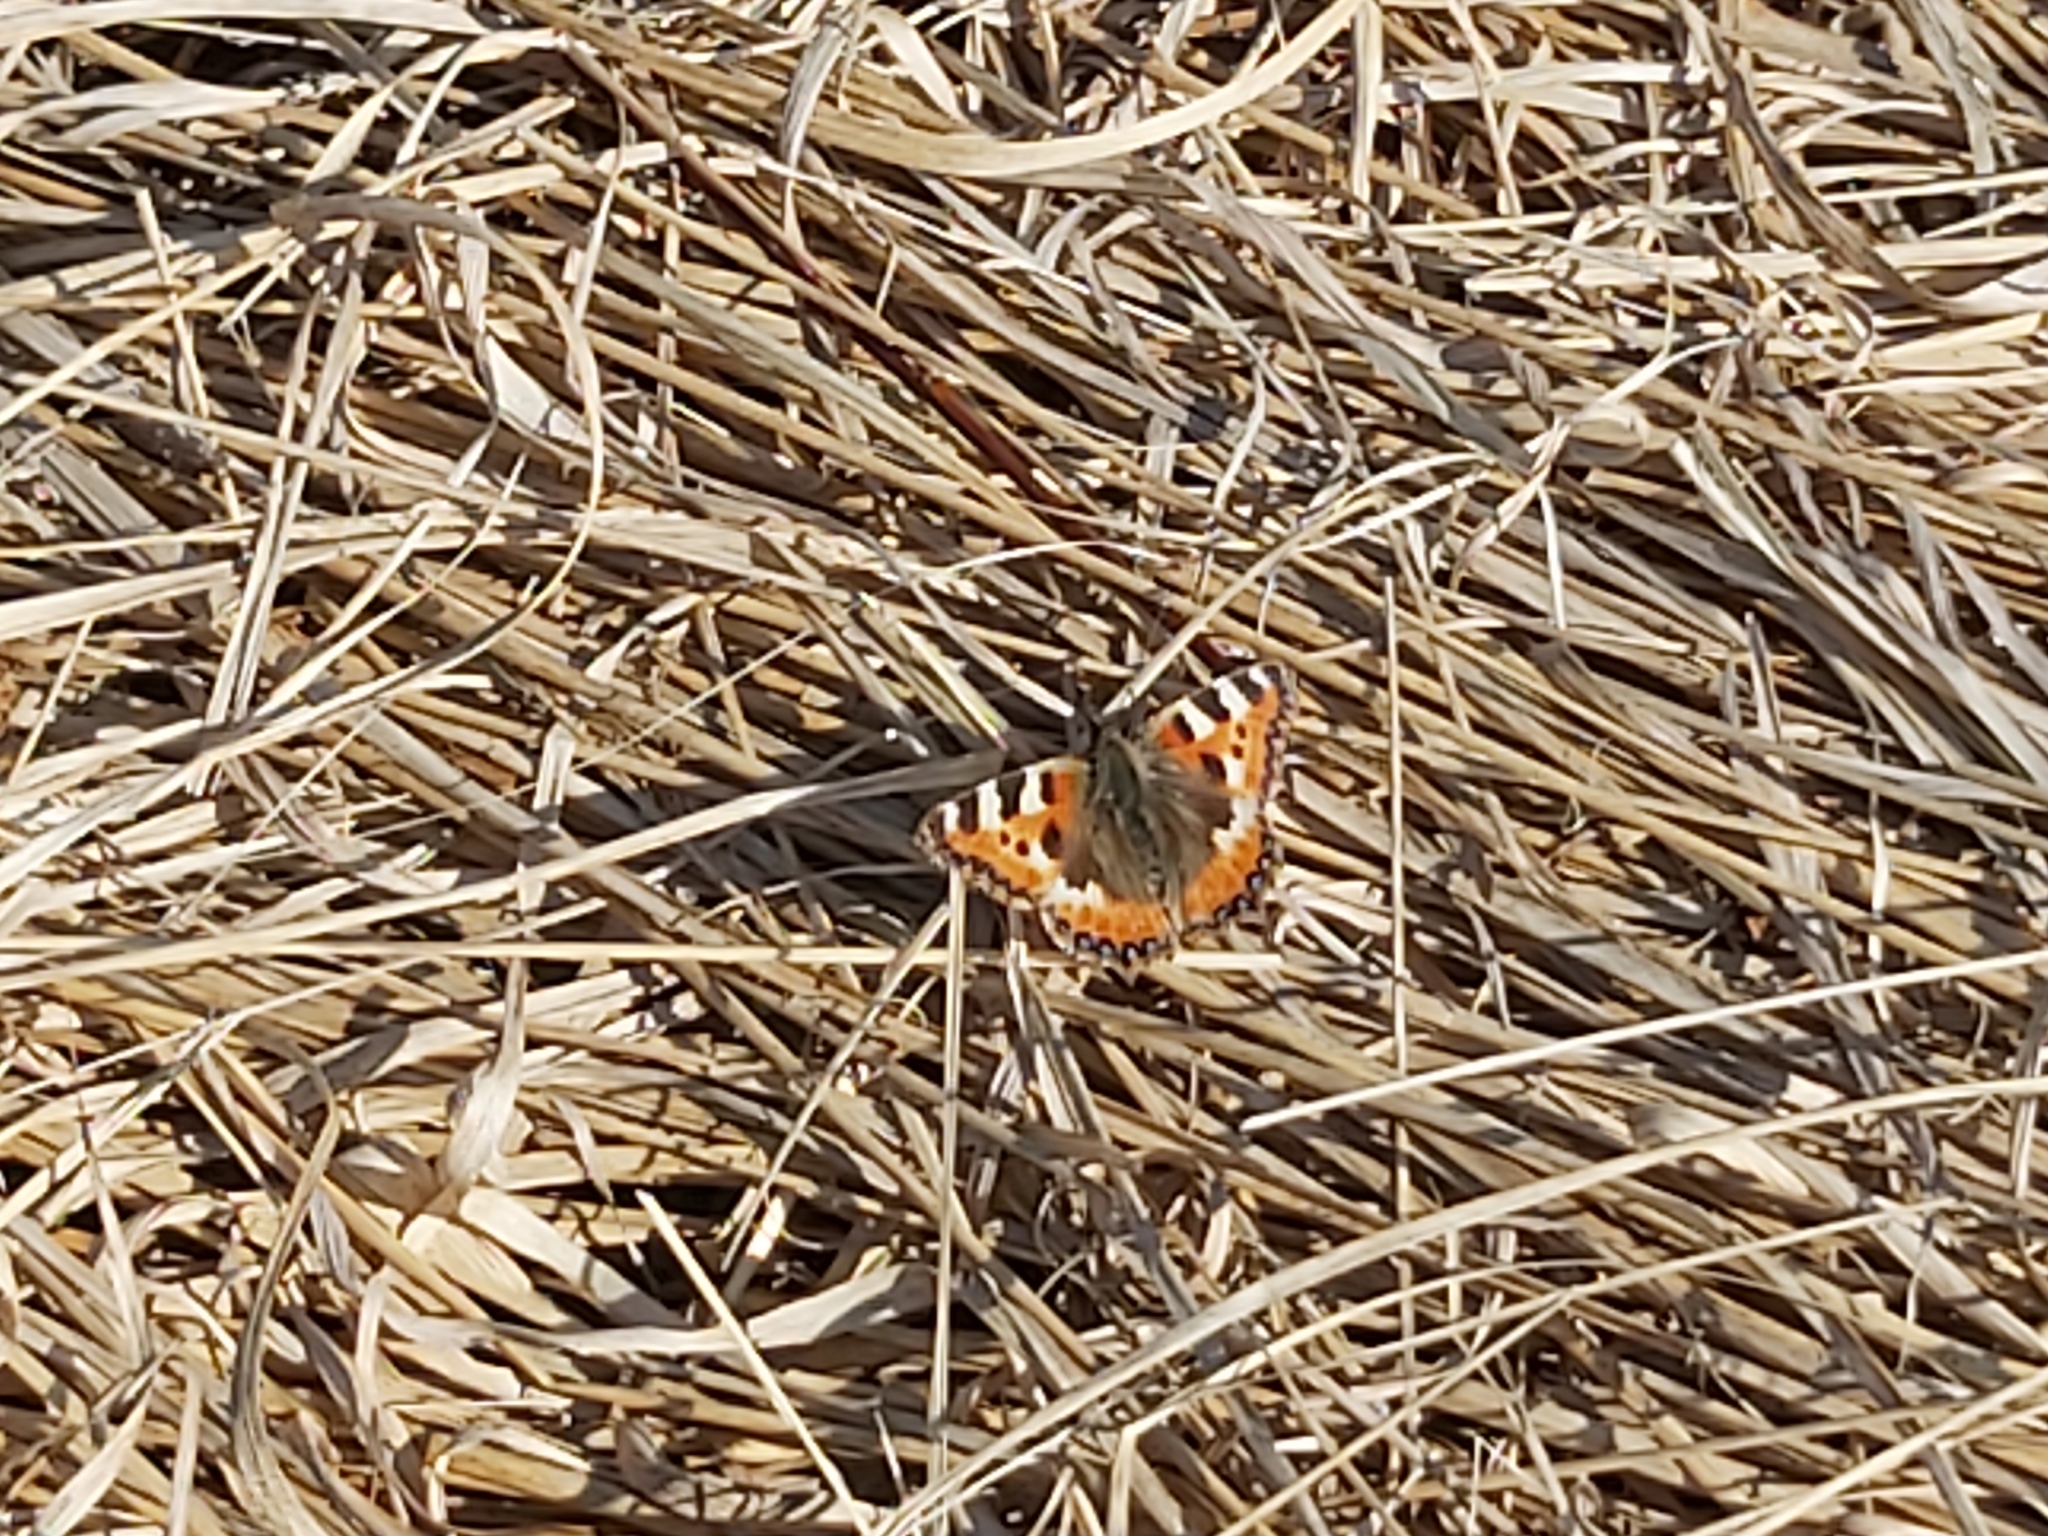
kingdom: Animalia
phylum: Arthropoda
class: Insecta
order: Lepidoptera
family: Nymphalidae
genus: Aglais
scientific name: Aglais urticae
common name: Small tortoiseshell
